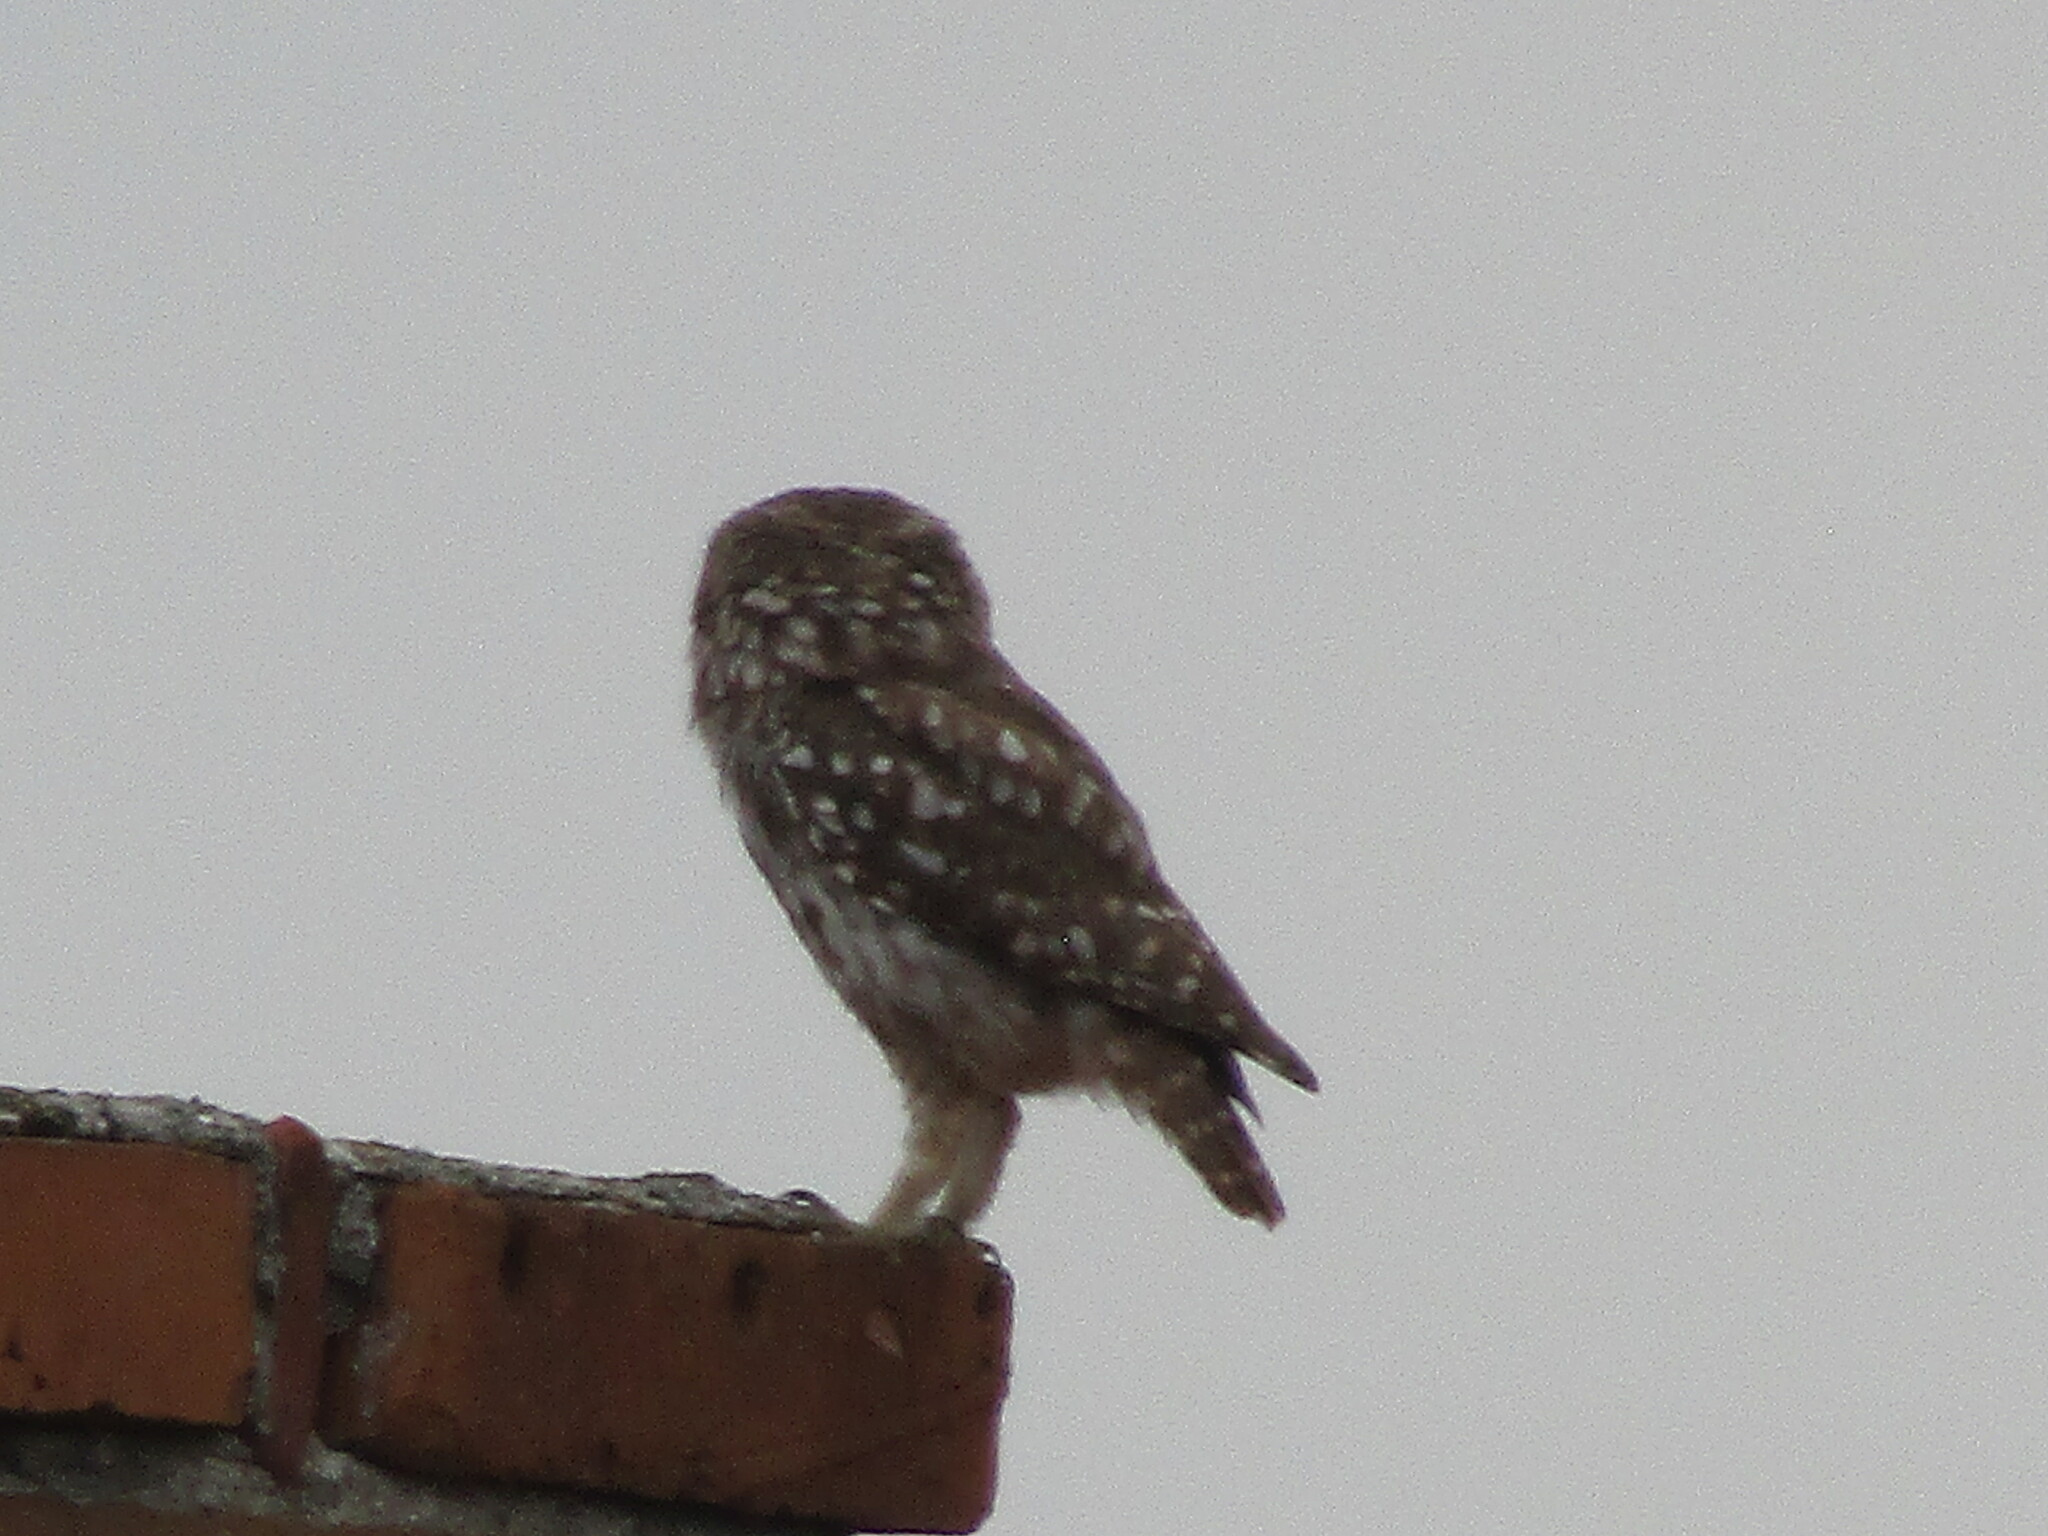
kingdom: Animalia
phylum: Chordata
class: Aves
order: Strigiformes
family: Strigidae
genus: Athene
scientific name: Athene noctua
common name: Little owl
